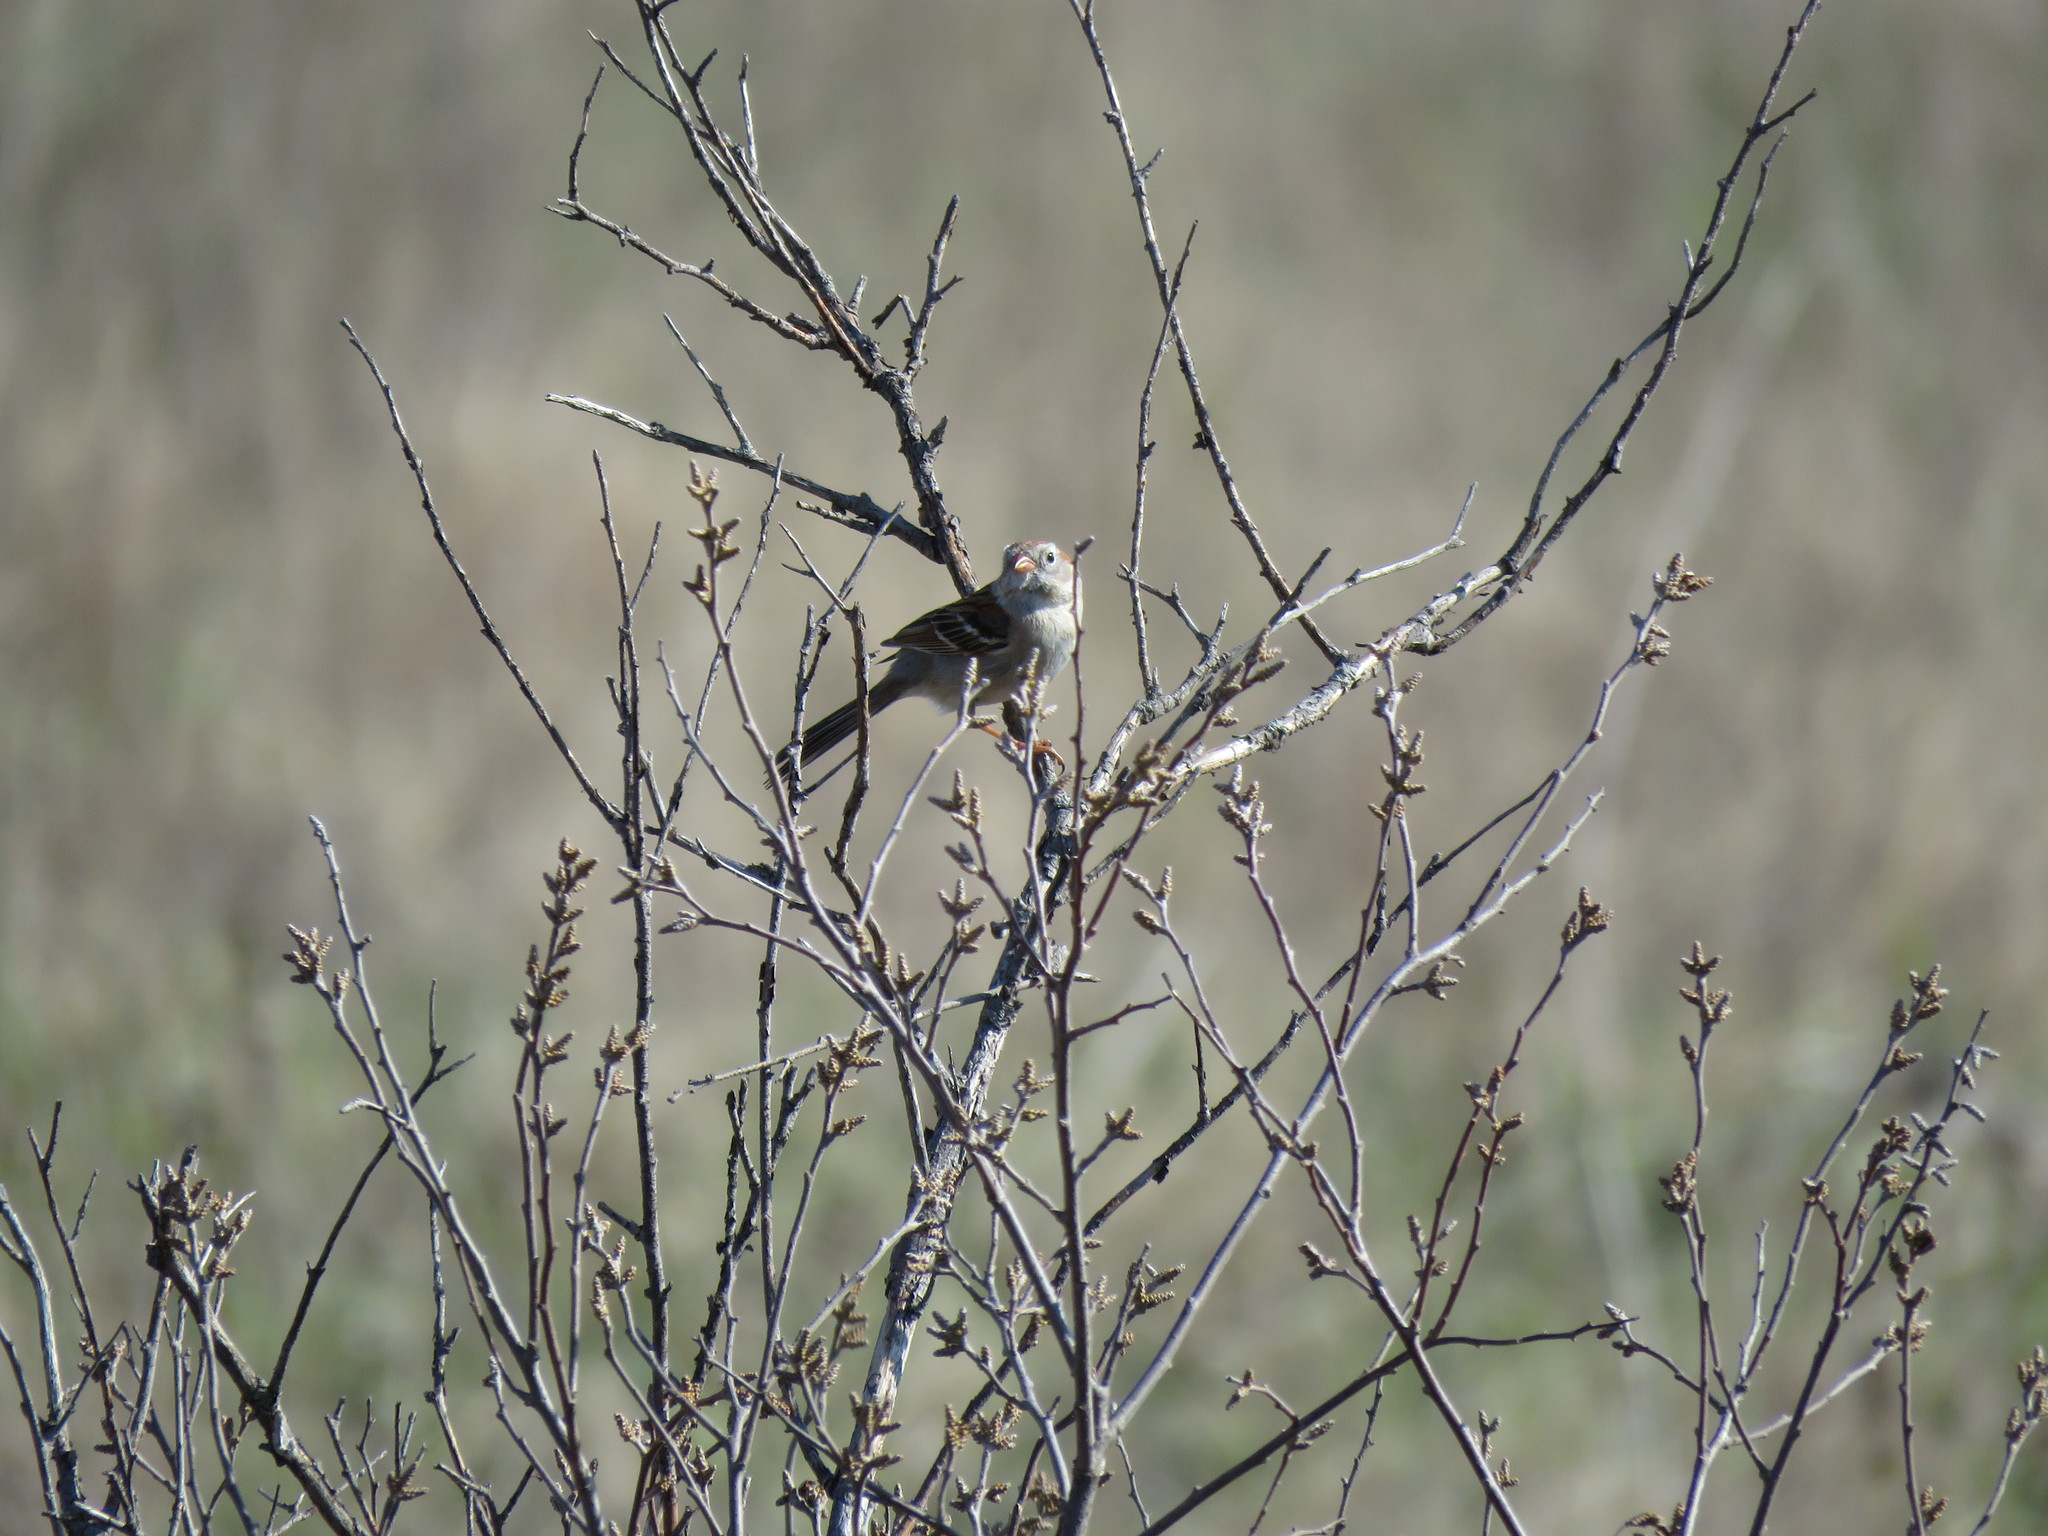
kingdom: Animalia
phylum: Chordata
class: Aves
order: Passeriformes
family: Passerellidae
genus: Spizella
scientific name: Spizella pusilla
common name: Field sparrow
